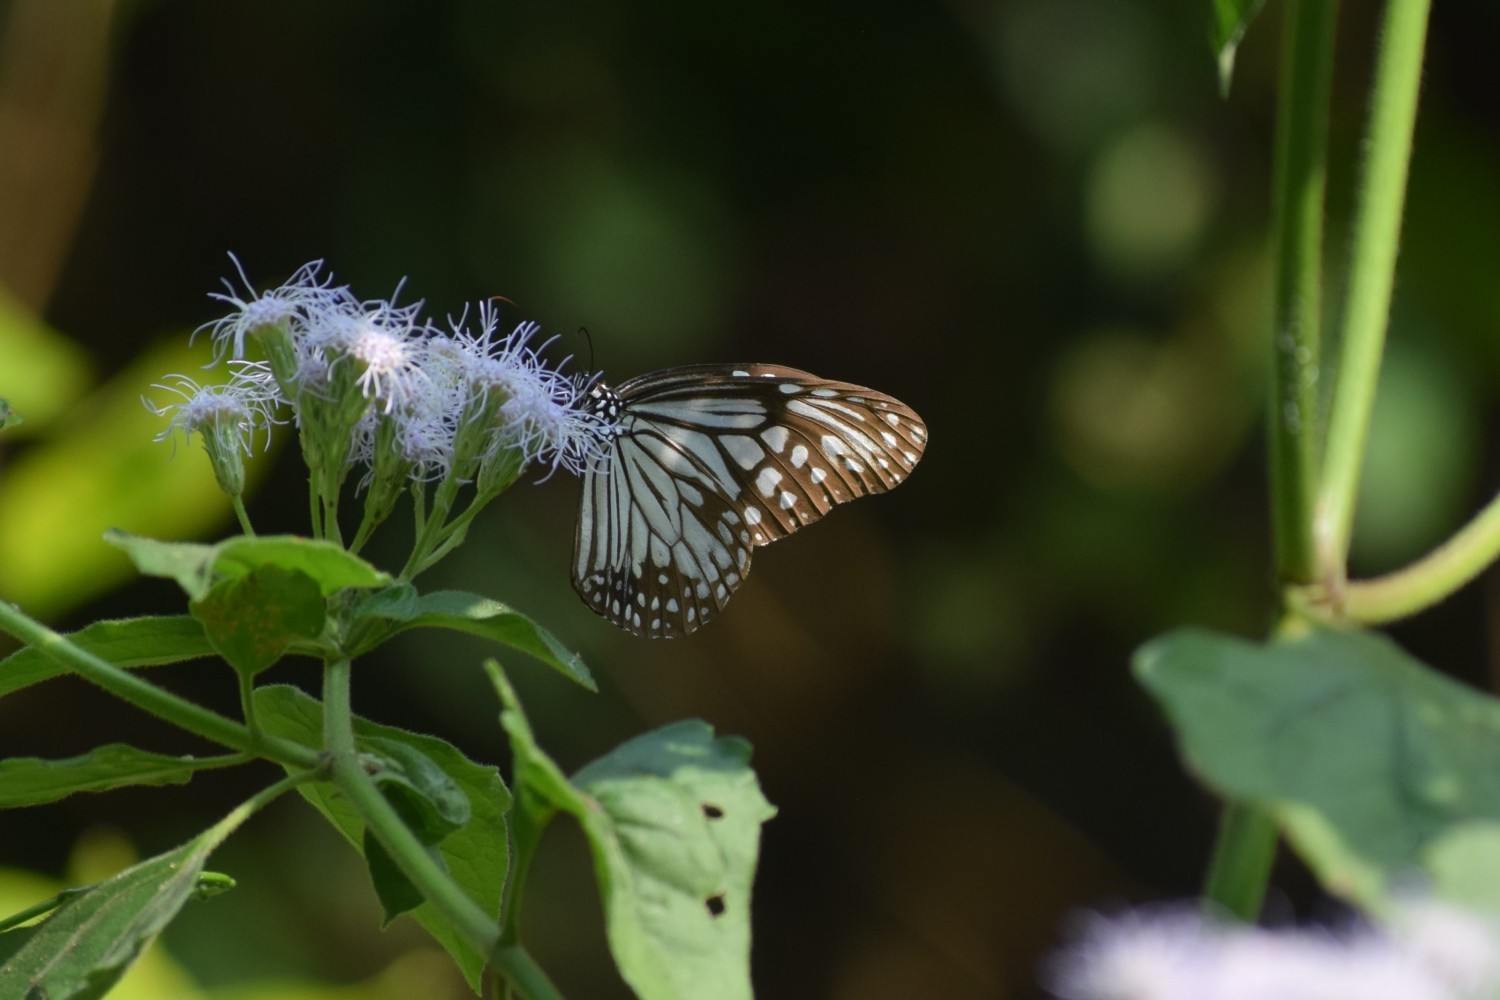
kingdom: Animalia
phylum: Arthropoda
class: Insecta
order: Lepidoptera
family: Nymphalidae
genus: Parantica
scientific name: Parantica aglea
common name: Glassy tiger
